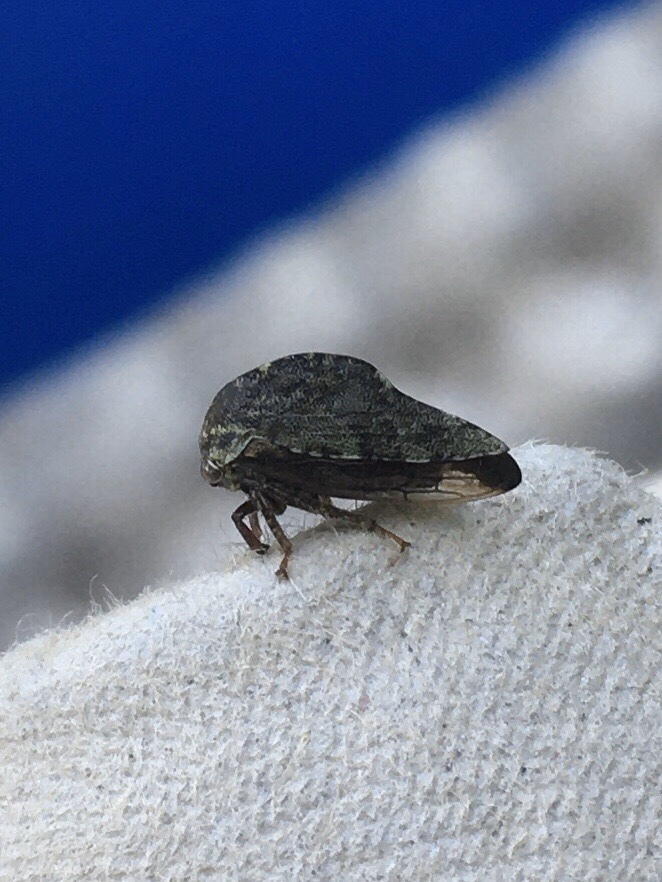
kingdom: Animalia
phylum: Arthropoda
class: Insecta
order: Hemiptera
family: Membracidae
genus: Telamona
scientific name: Telamona westcotti
